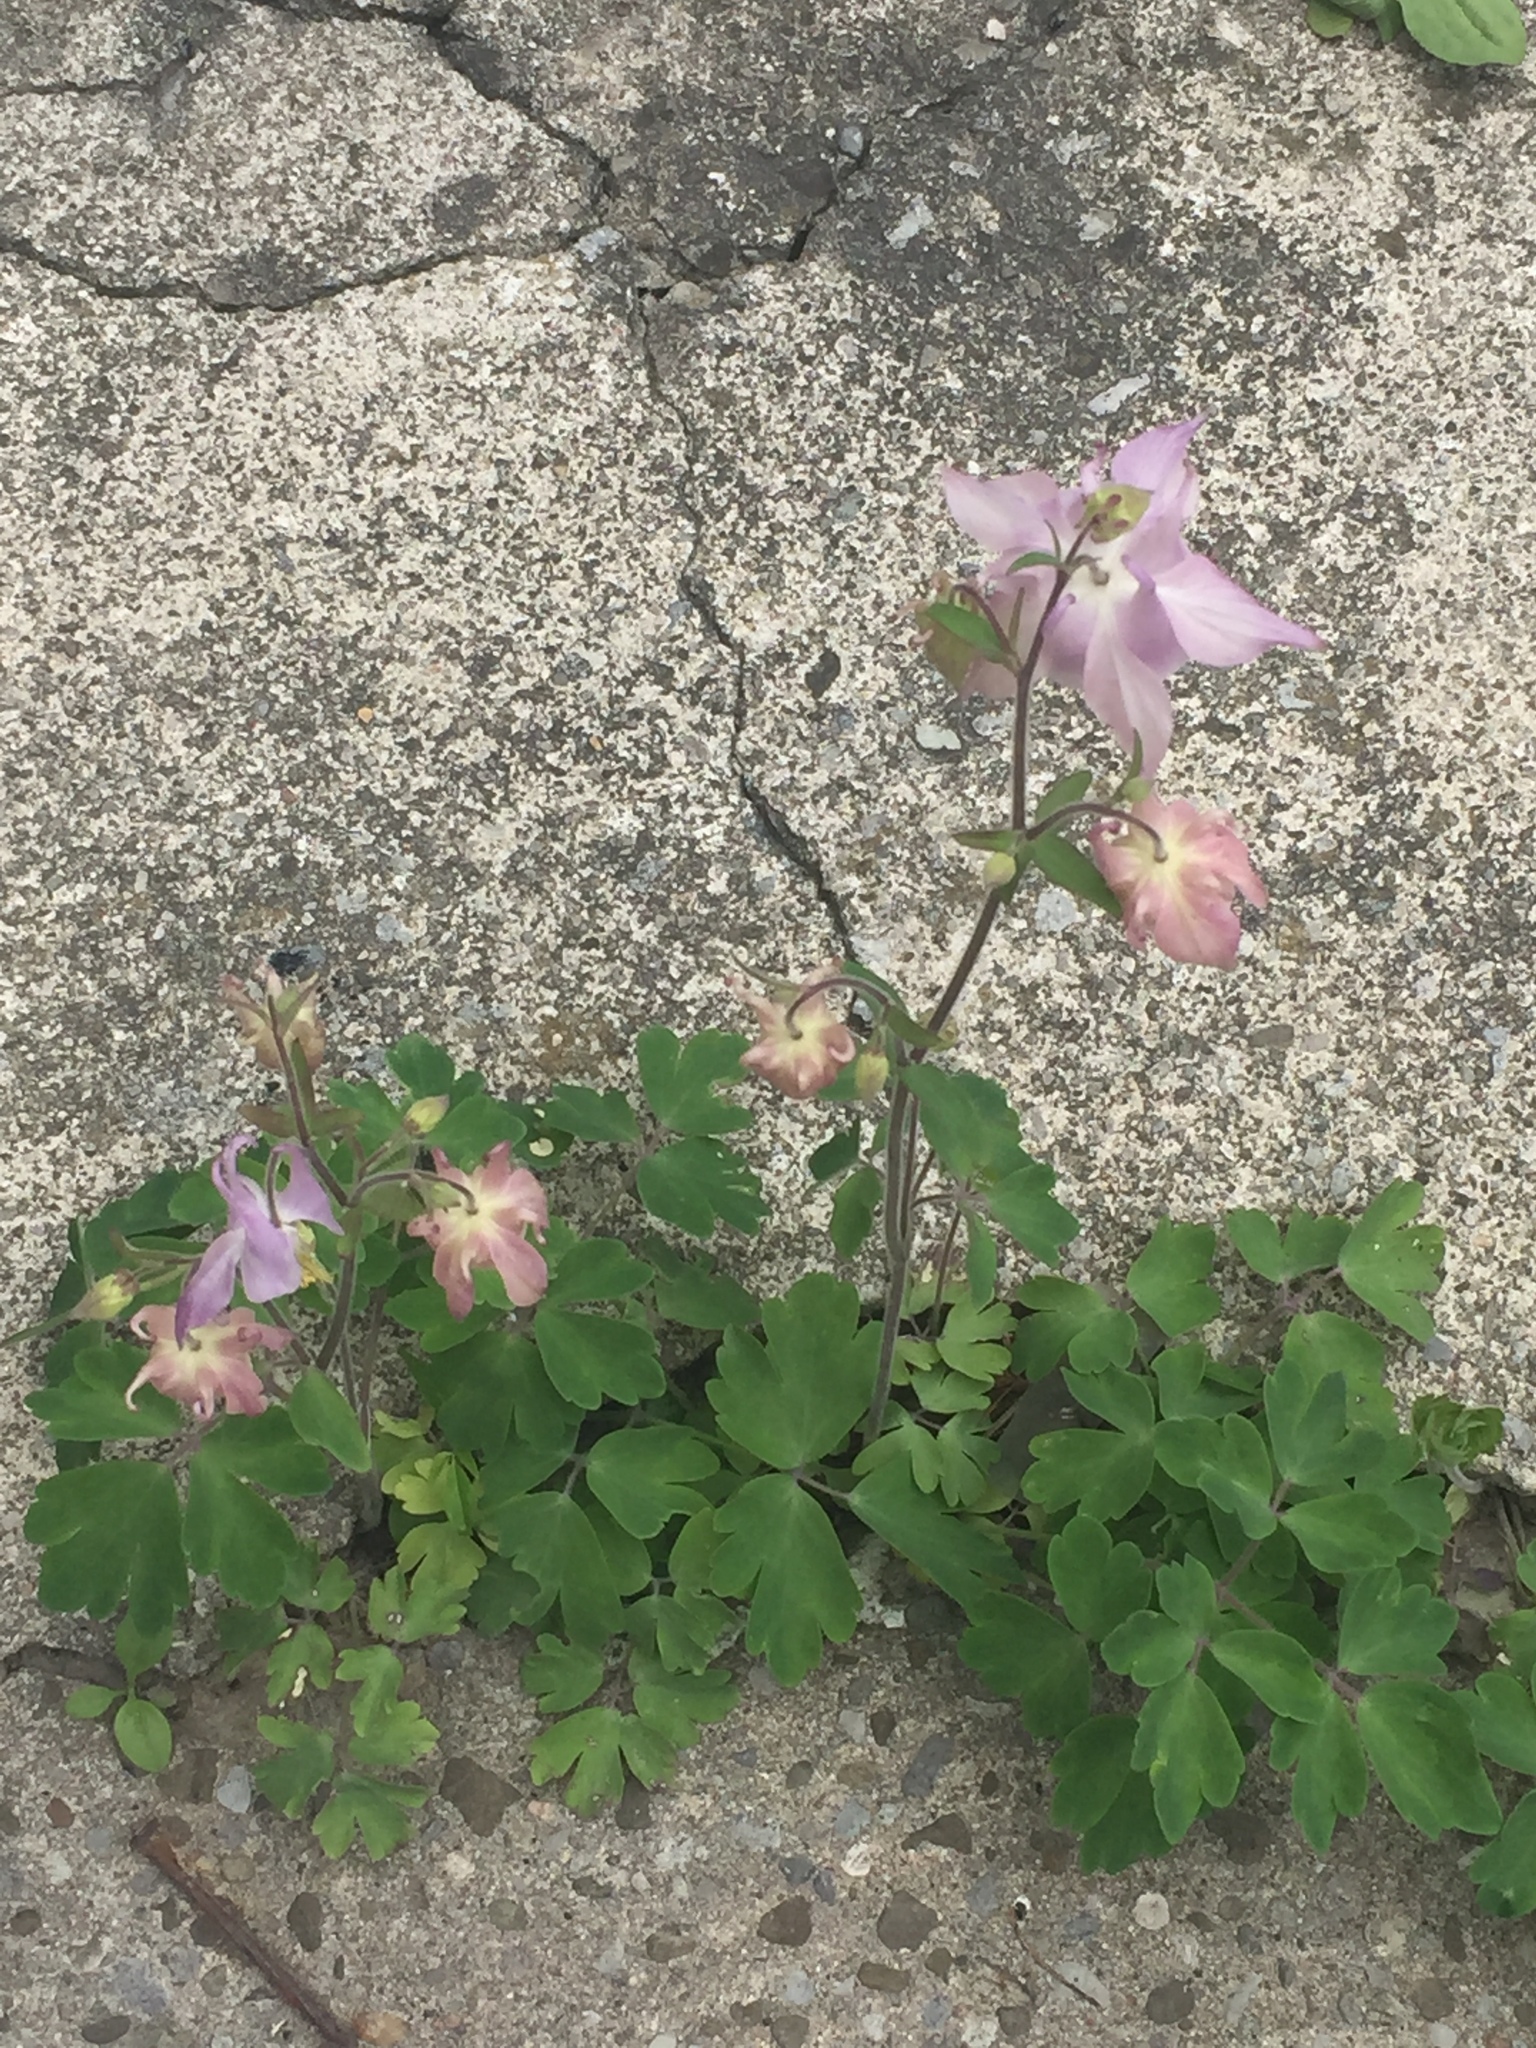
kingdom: Plantae
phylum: Tracheophyta
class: Magnoliopsida
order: Ranunculales
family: Ranunculaceae
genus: Aquilegia
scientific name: Aquilegia vulgaris
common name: Columbine
